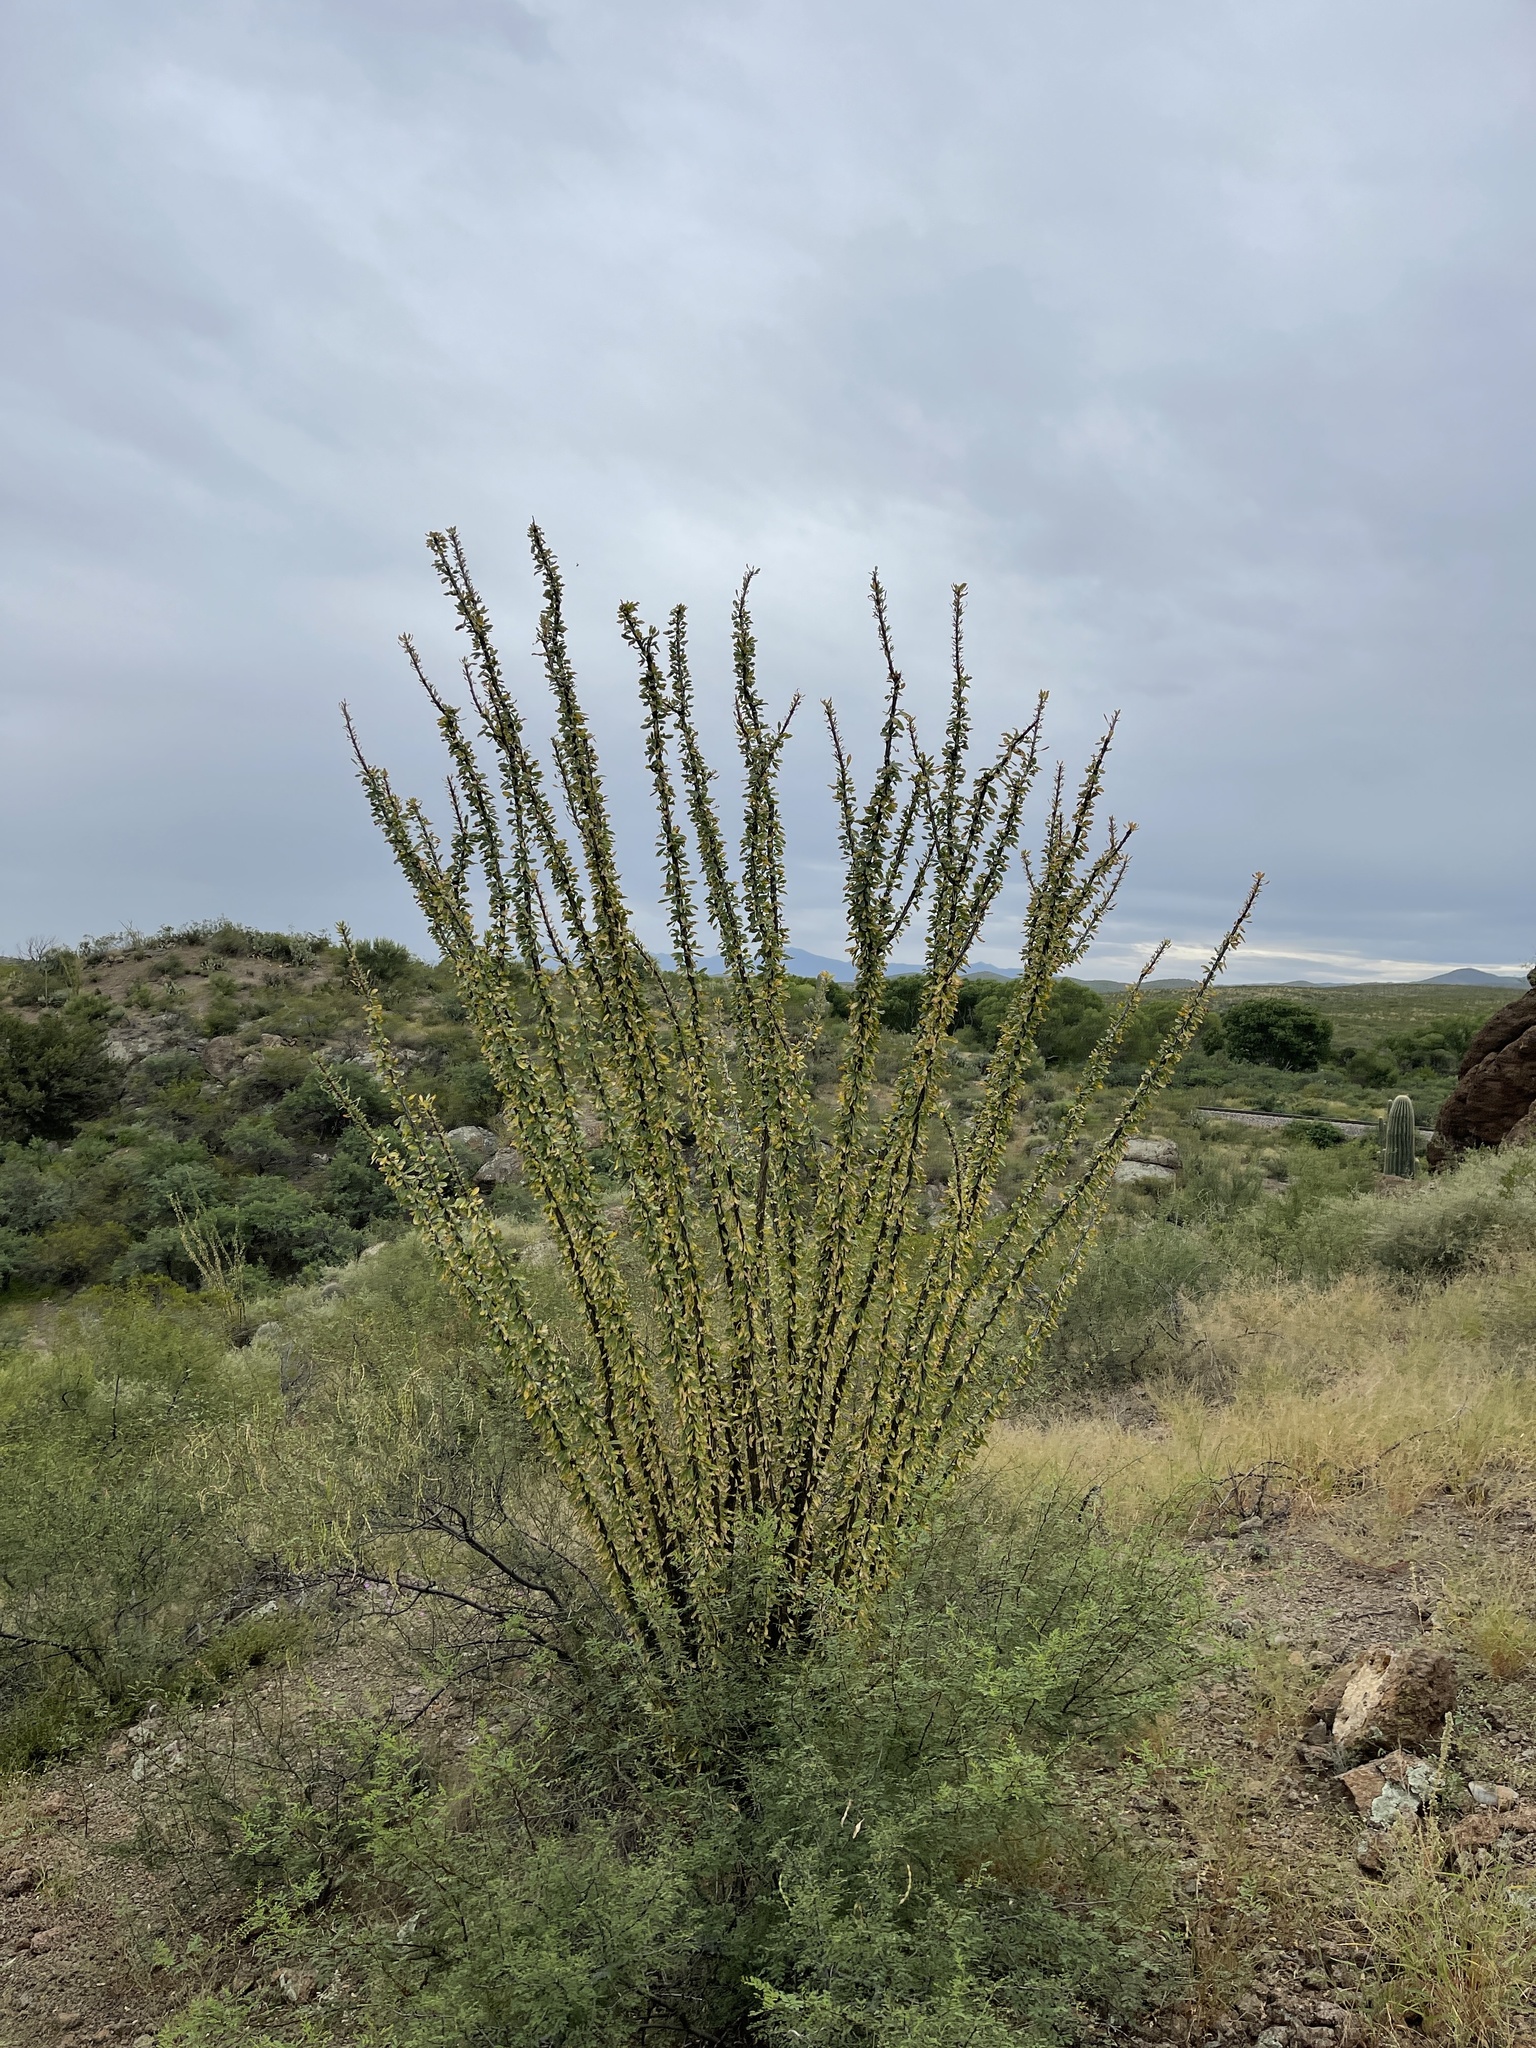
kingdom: Plantae
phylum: Tracheophyta
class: Magnoliopsida
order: Ericales
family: Fouquieriaceae
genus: Fouquieria
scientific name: Fouquieria splendens
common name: Vine-cactus
